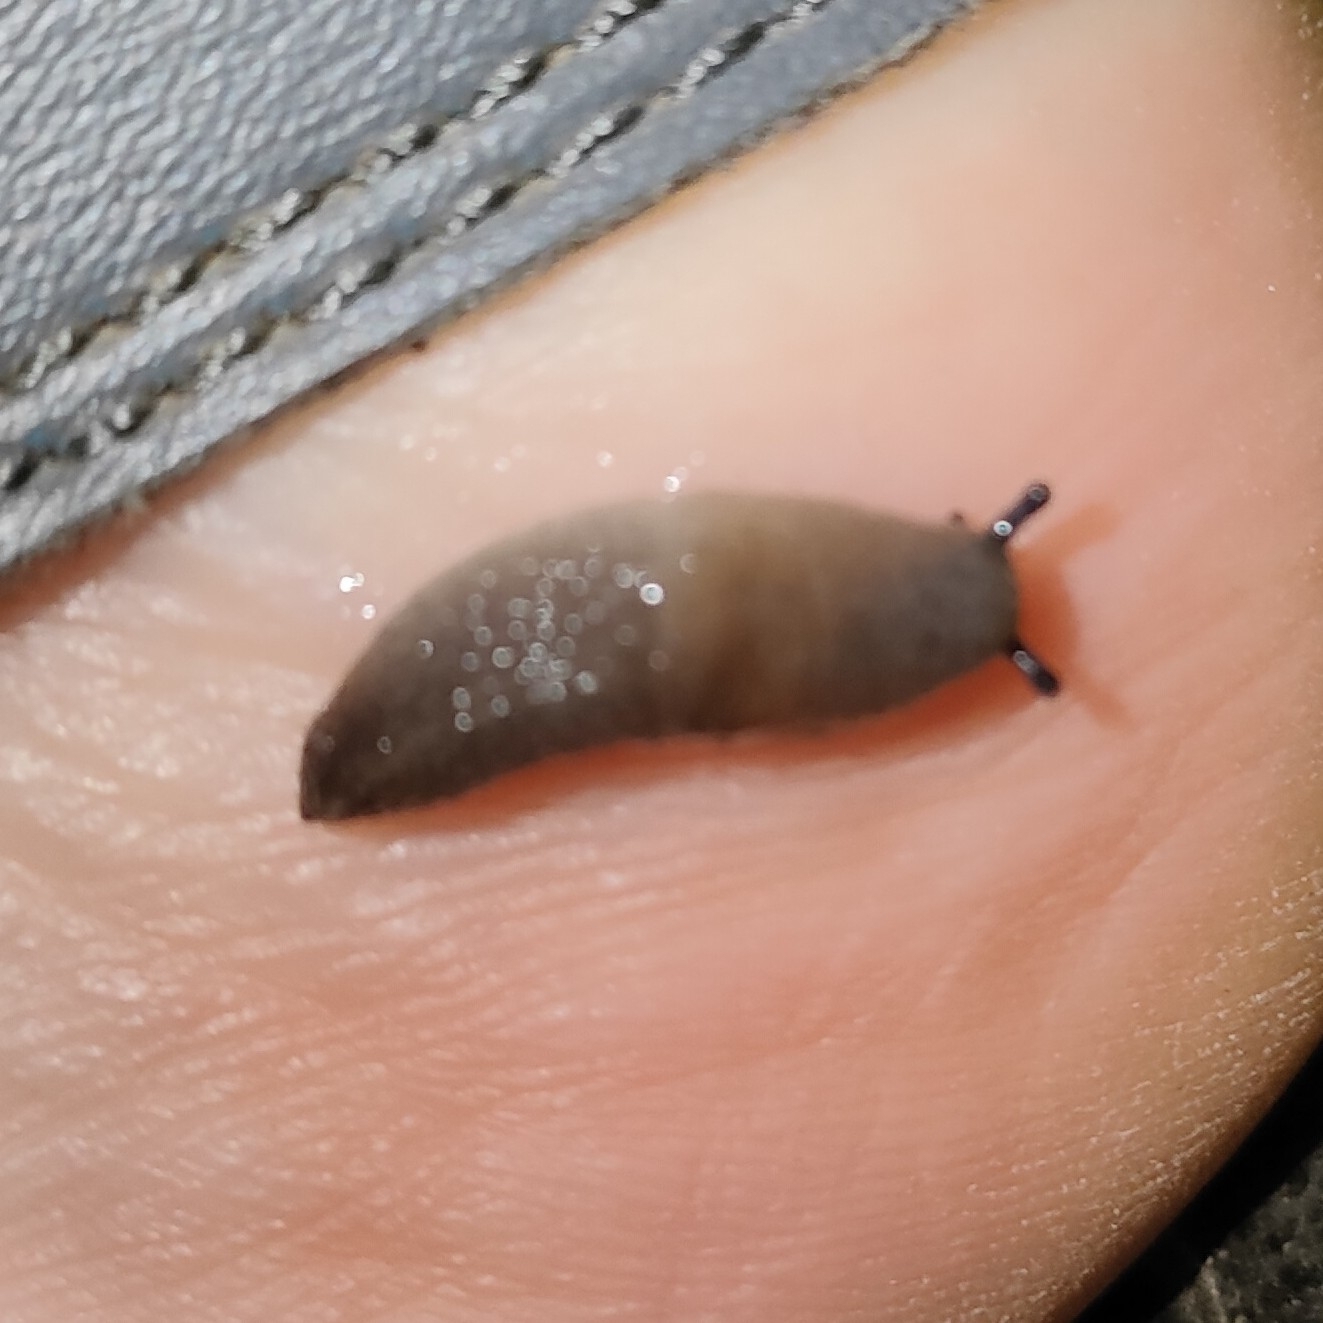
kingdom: Animalia
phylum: Mollusca
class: Gastropoda
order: Stylommatophora
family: Agriolimacidae
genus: Krynickillus
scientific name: Krynickillus melanocephalus
